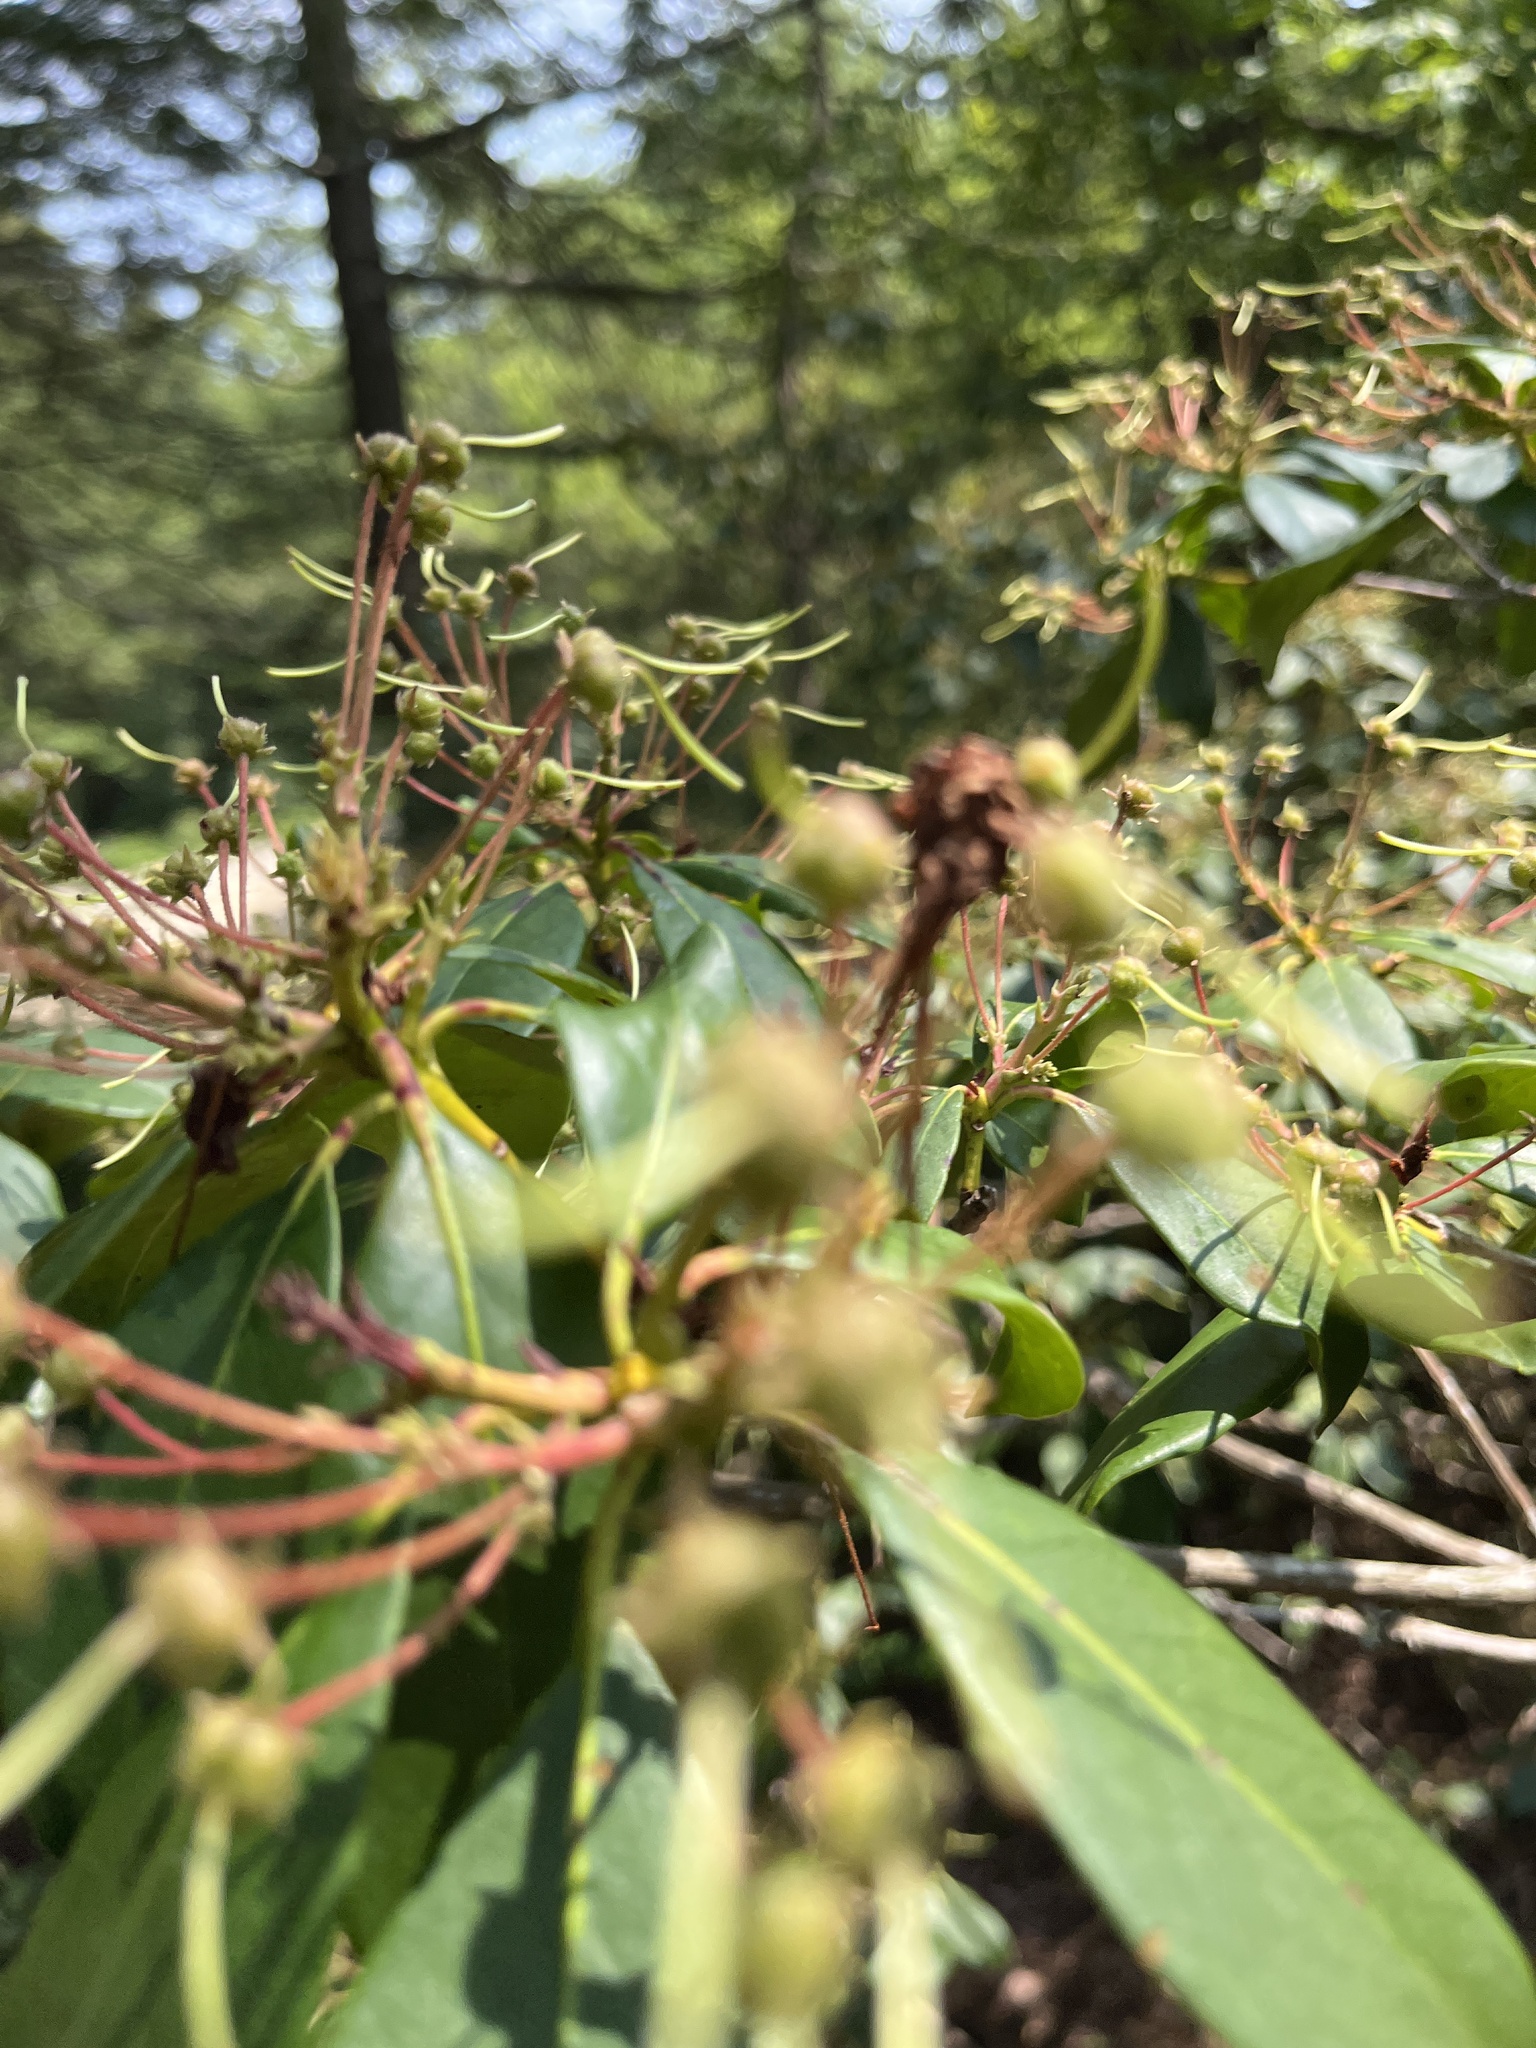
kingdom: Plantae
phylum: Tracheophyta
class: Magnoliopsida
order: Ericales
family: Ericaceae
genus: Kalmia
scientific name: Kalmia latifolia
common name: Mountain-laurel
